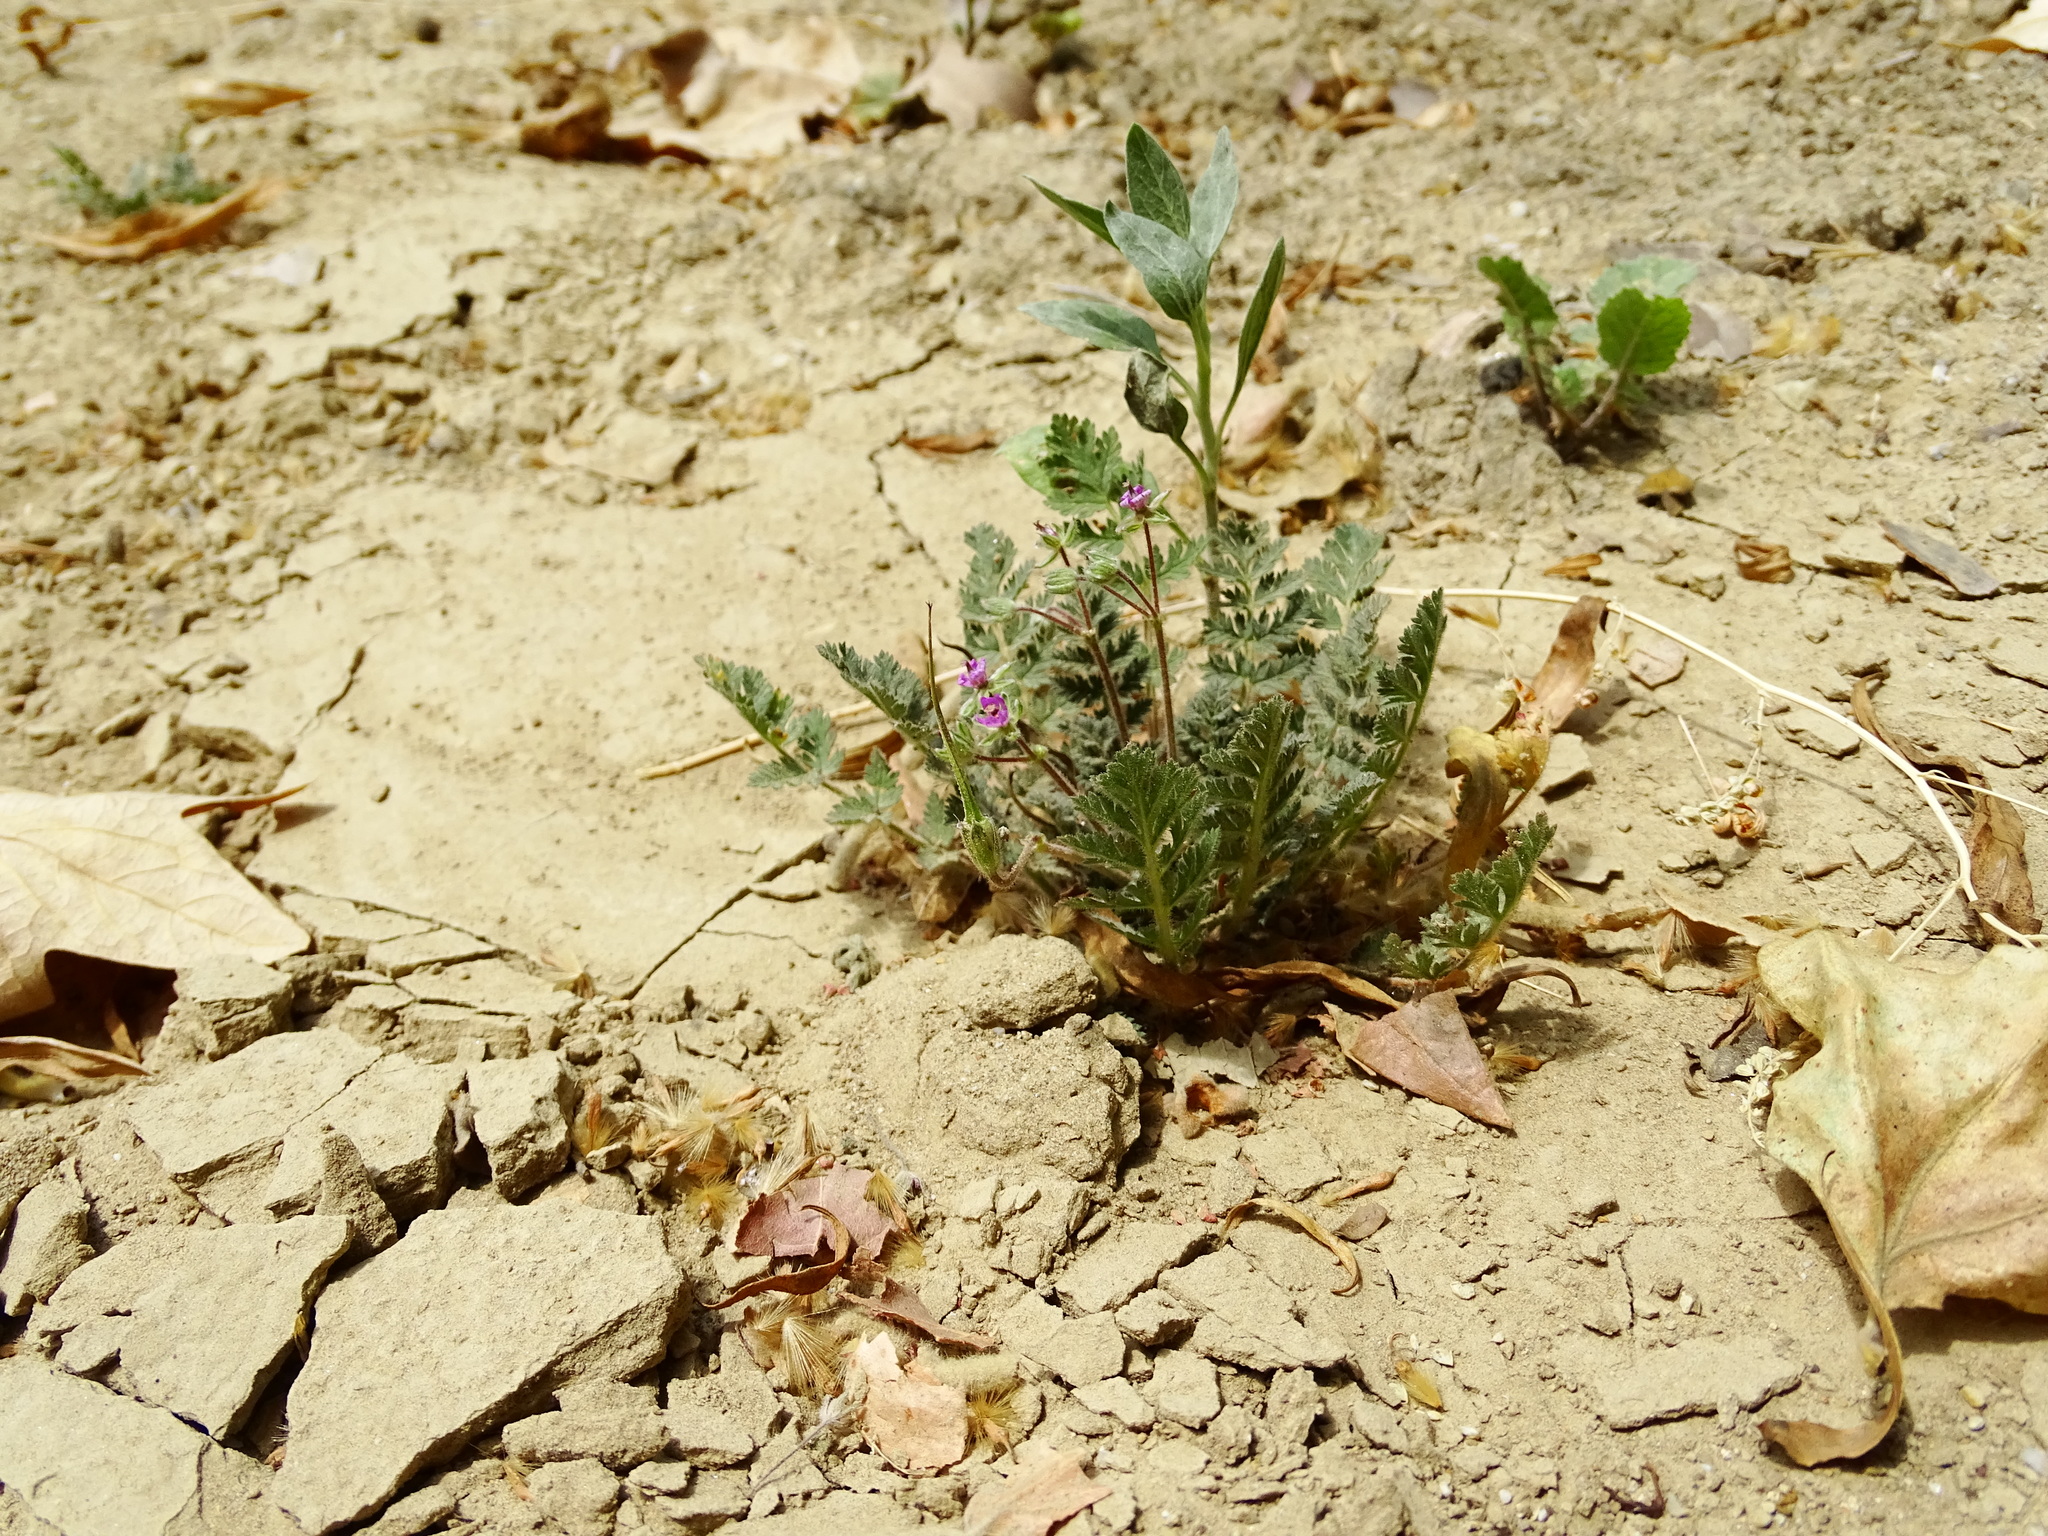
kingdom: Plantae
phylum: Tracheophyta
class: Magnoliopsida
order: Geraniales
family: Geraniaceae
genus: Erodium
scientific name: Erodium cicutarium
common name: Common stork's-bill
